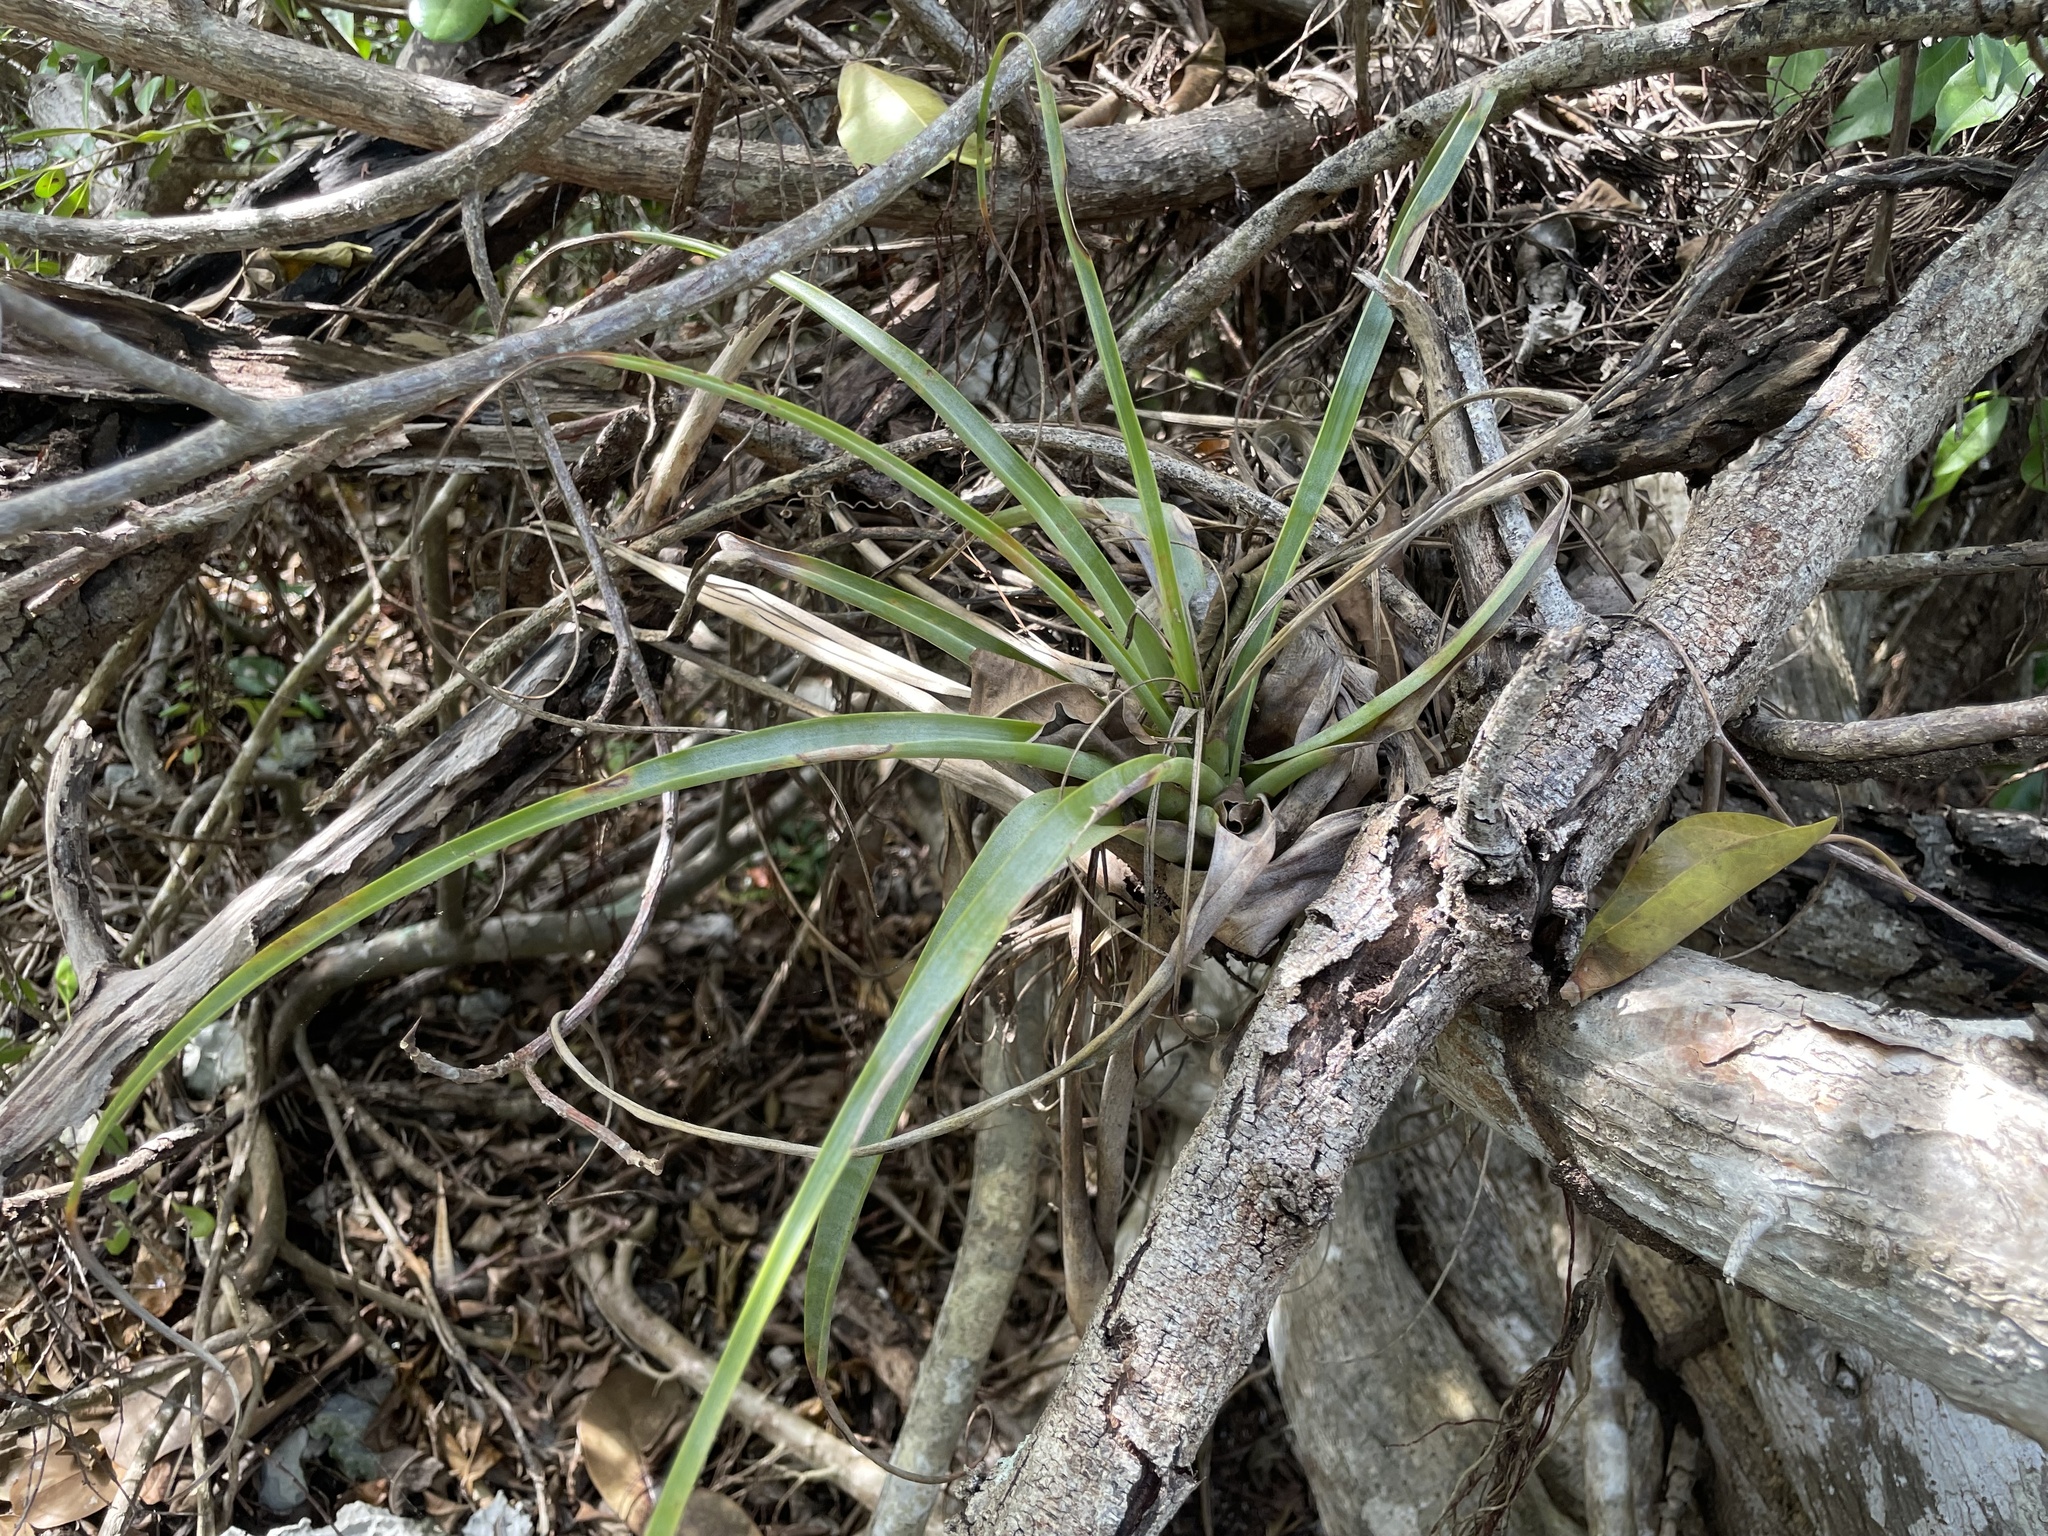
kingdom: Plantae
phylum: Tracheophyta
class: Liliopsida
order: Poales
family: Bromeliaceae
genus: Tillandsia
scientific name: Tillandsia utriculata
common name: Wild pine
